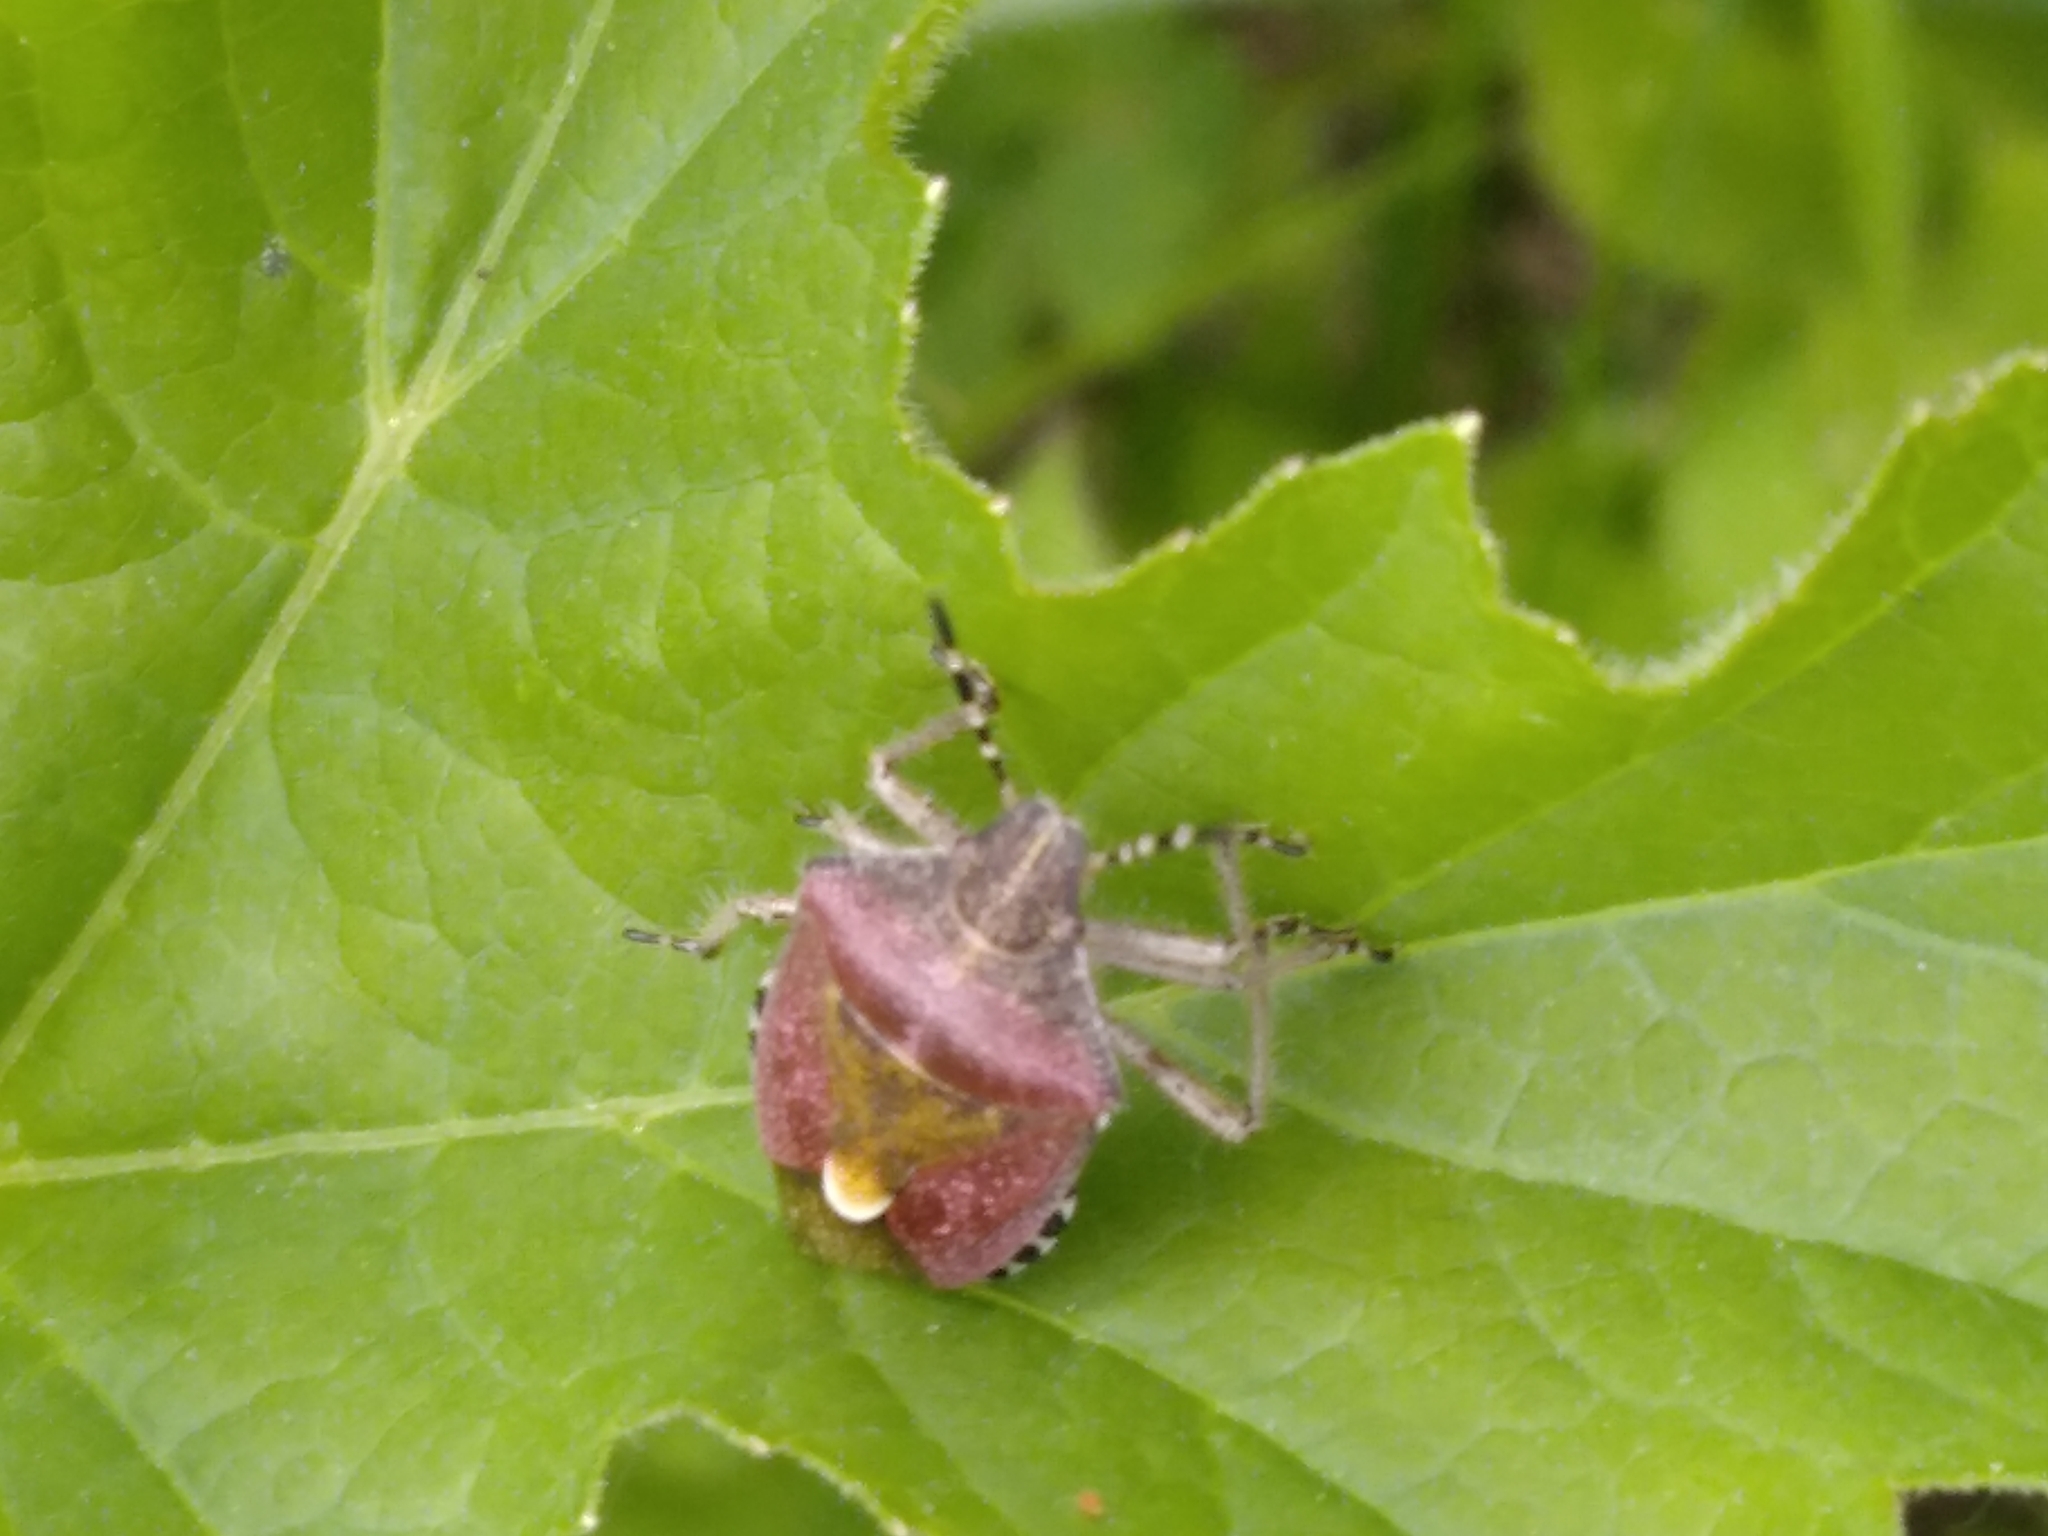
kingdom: Animalia
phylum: Arthropoda
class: Insecta
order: Hemiptera
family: Pentatomidae
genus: Dolycoris
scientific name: Dolycoris baccarum
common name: Sloe bug
